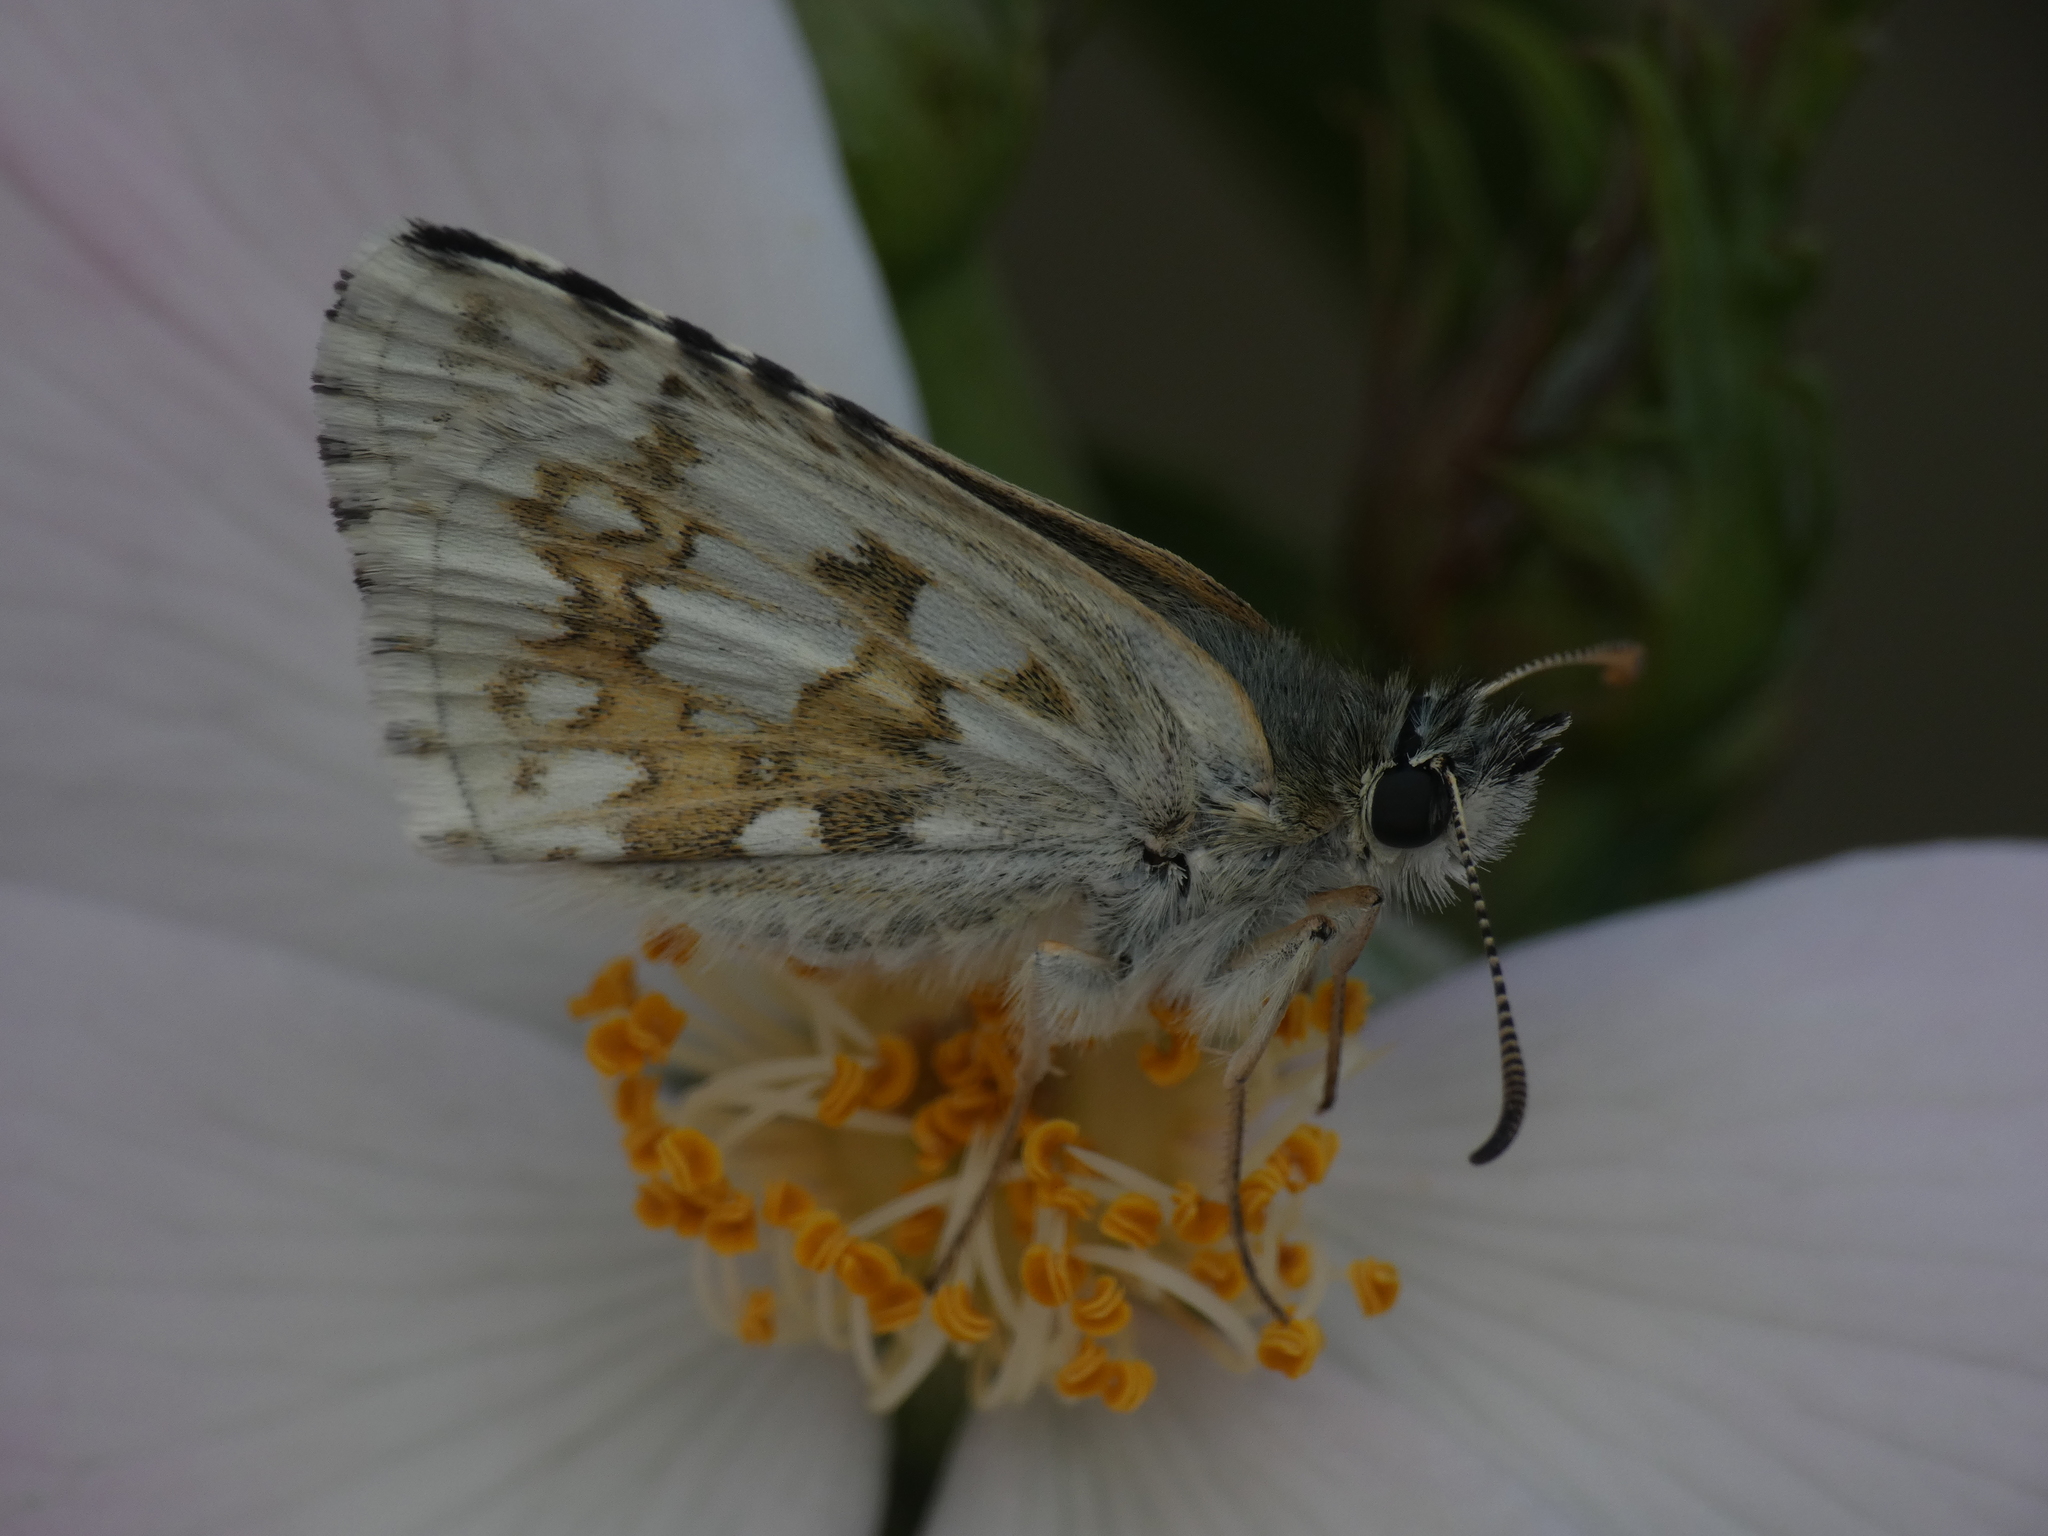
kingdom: Animalia
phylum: Arthropoda
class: Insecta
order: Lepidoptera
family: Hesperiidae
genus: Pyrgus
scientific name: Pyrgus fritillarius
